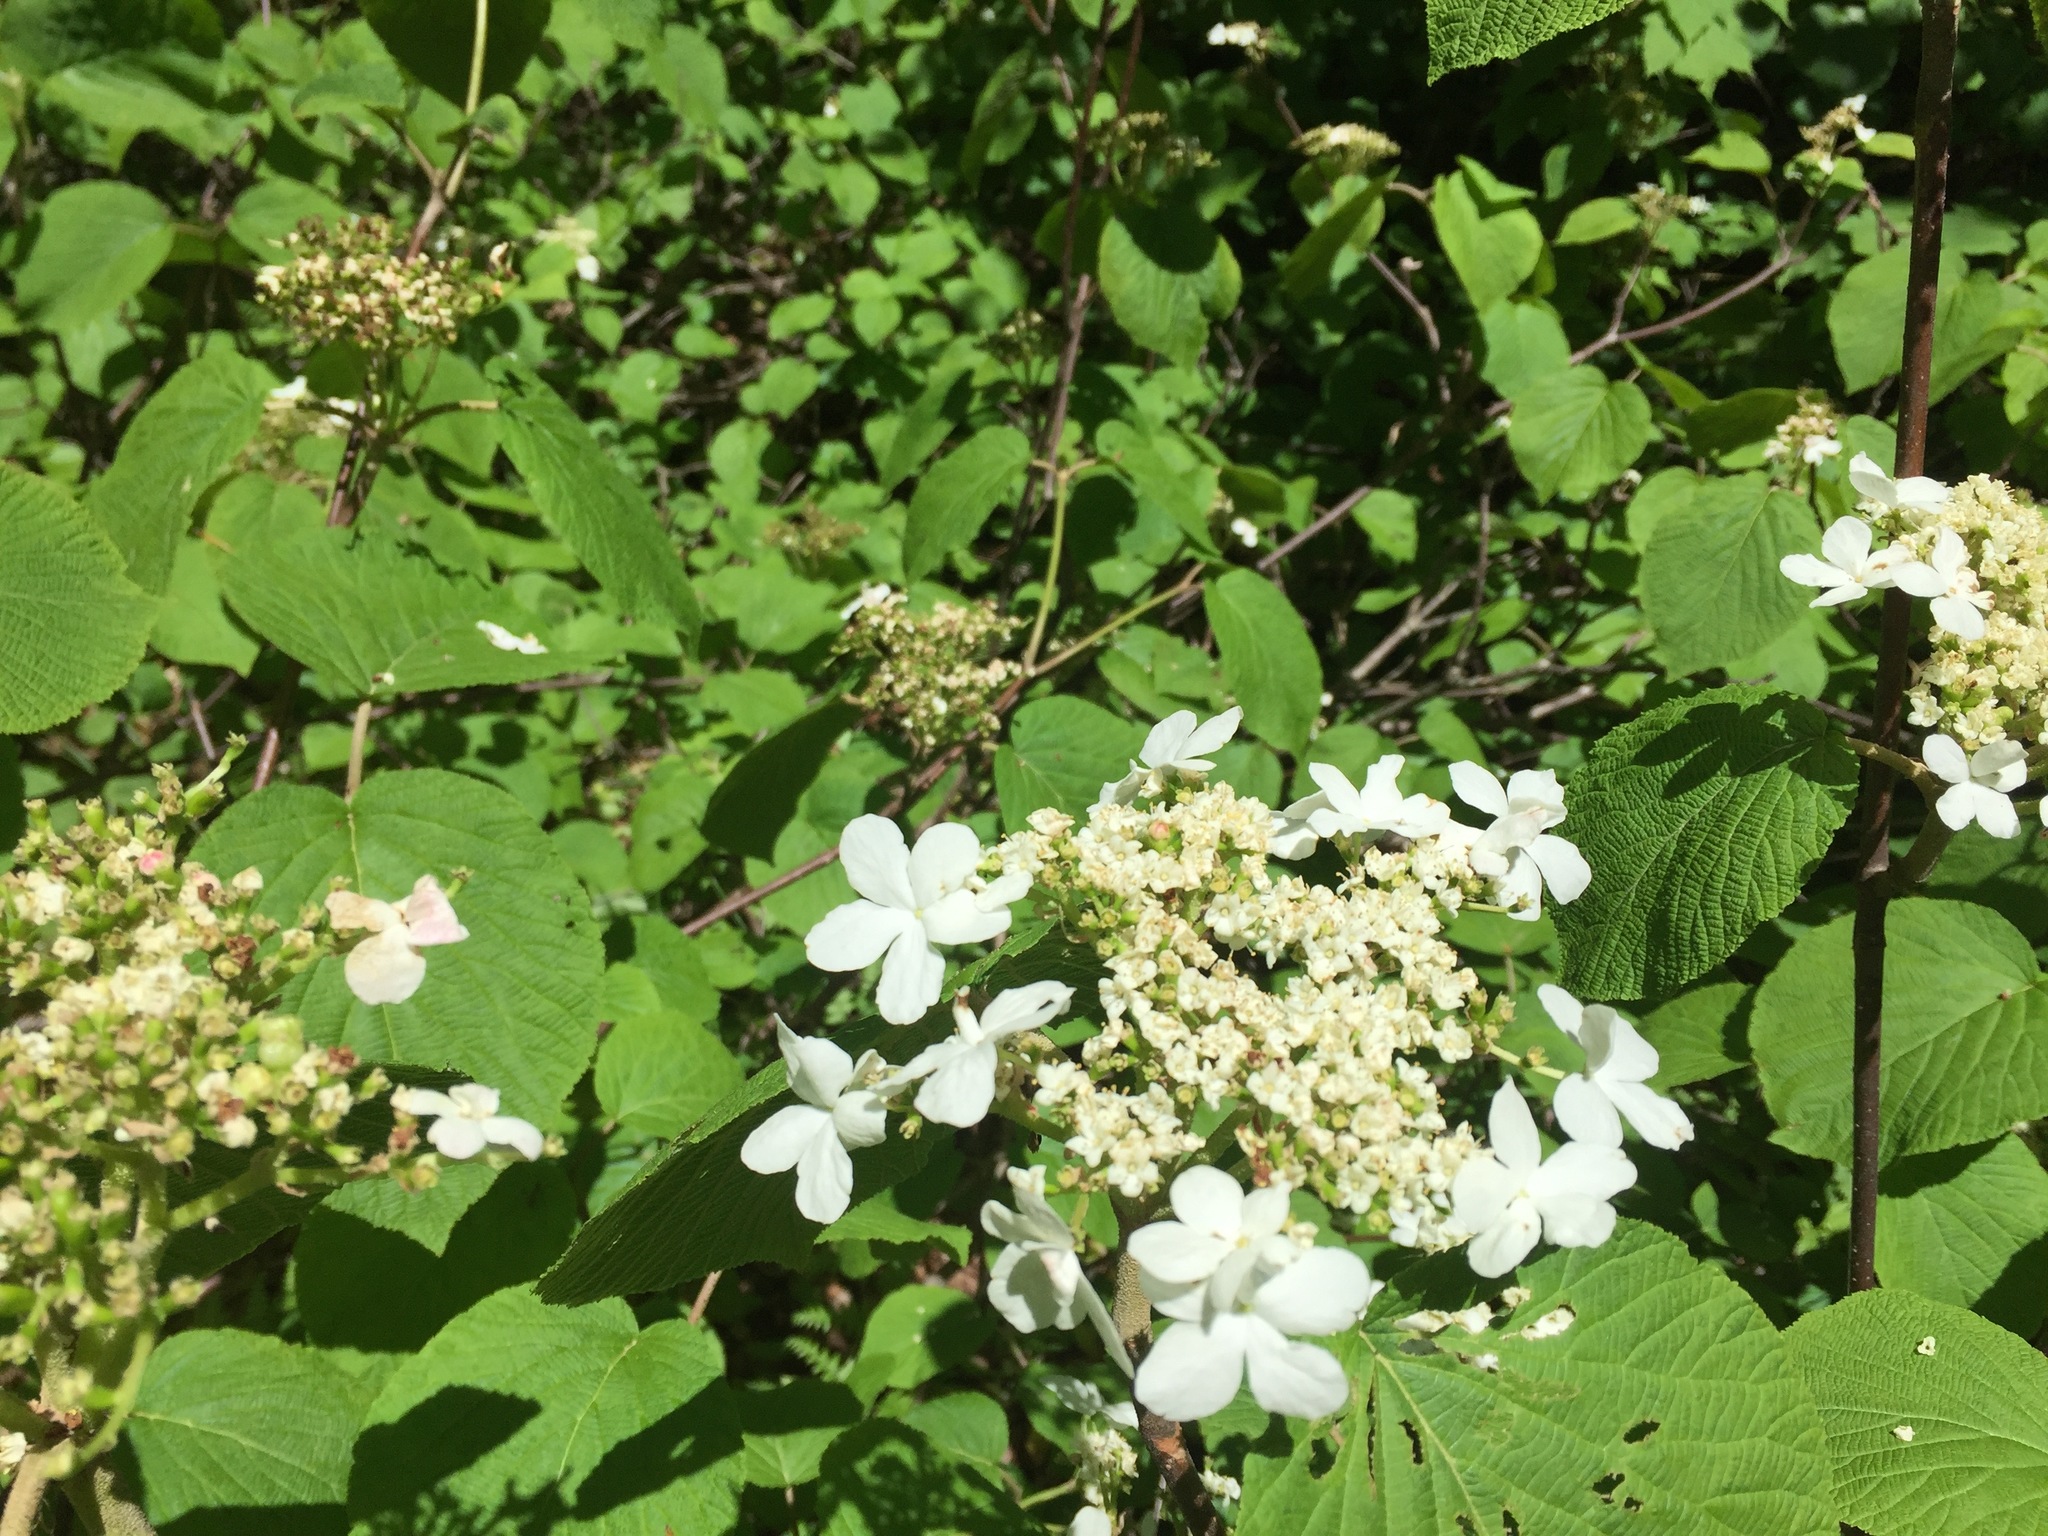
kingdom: Plantae
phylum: Tracheophyta
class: Magnoliopsida
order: Dipsacales
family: Viburnaceae
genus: Viburnum
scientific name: Viburnum lantanoides
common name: Hobblebush
